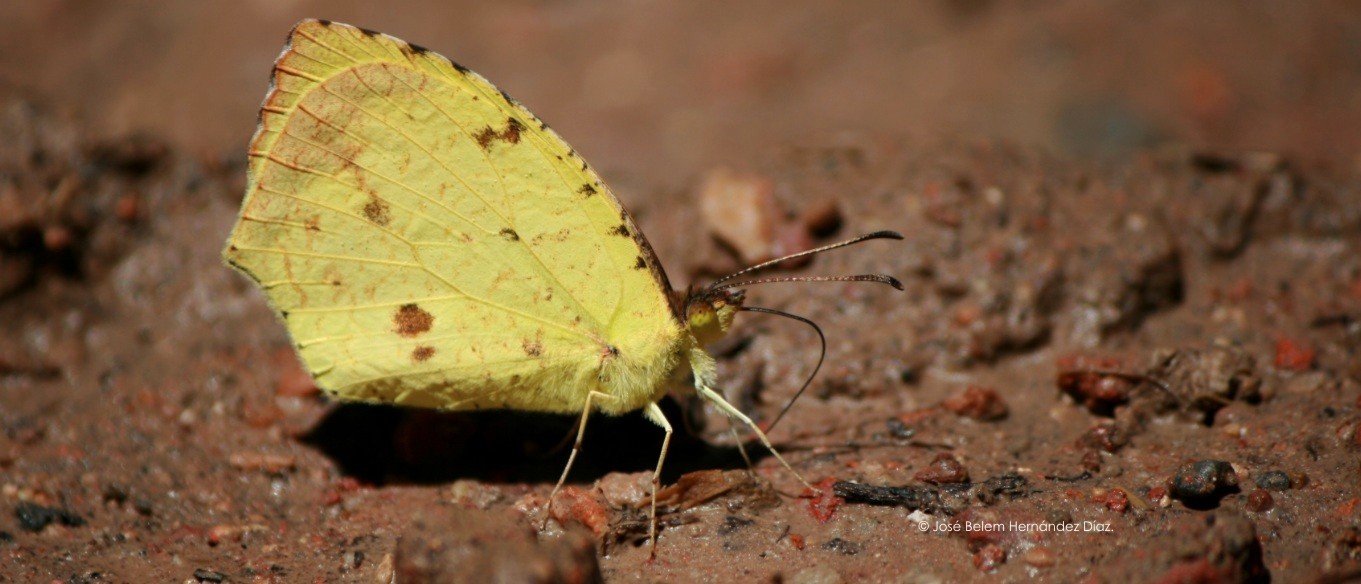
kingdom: Animalia
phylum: Arthropoda
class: Insecta
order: Lepidoptera
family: Pieridae
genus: Abaeis
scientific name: Abaeis salome
